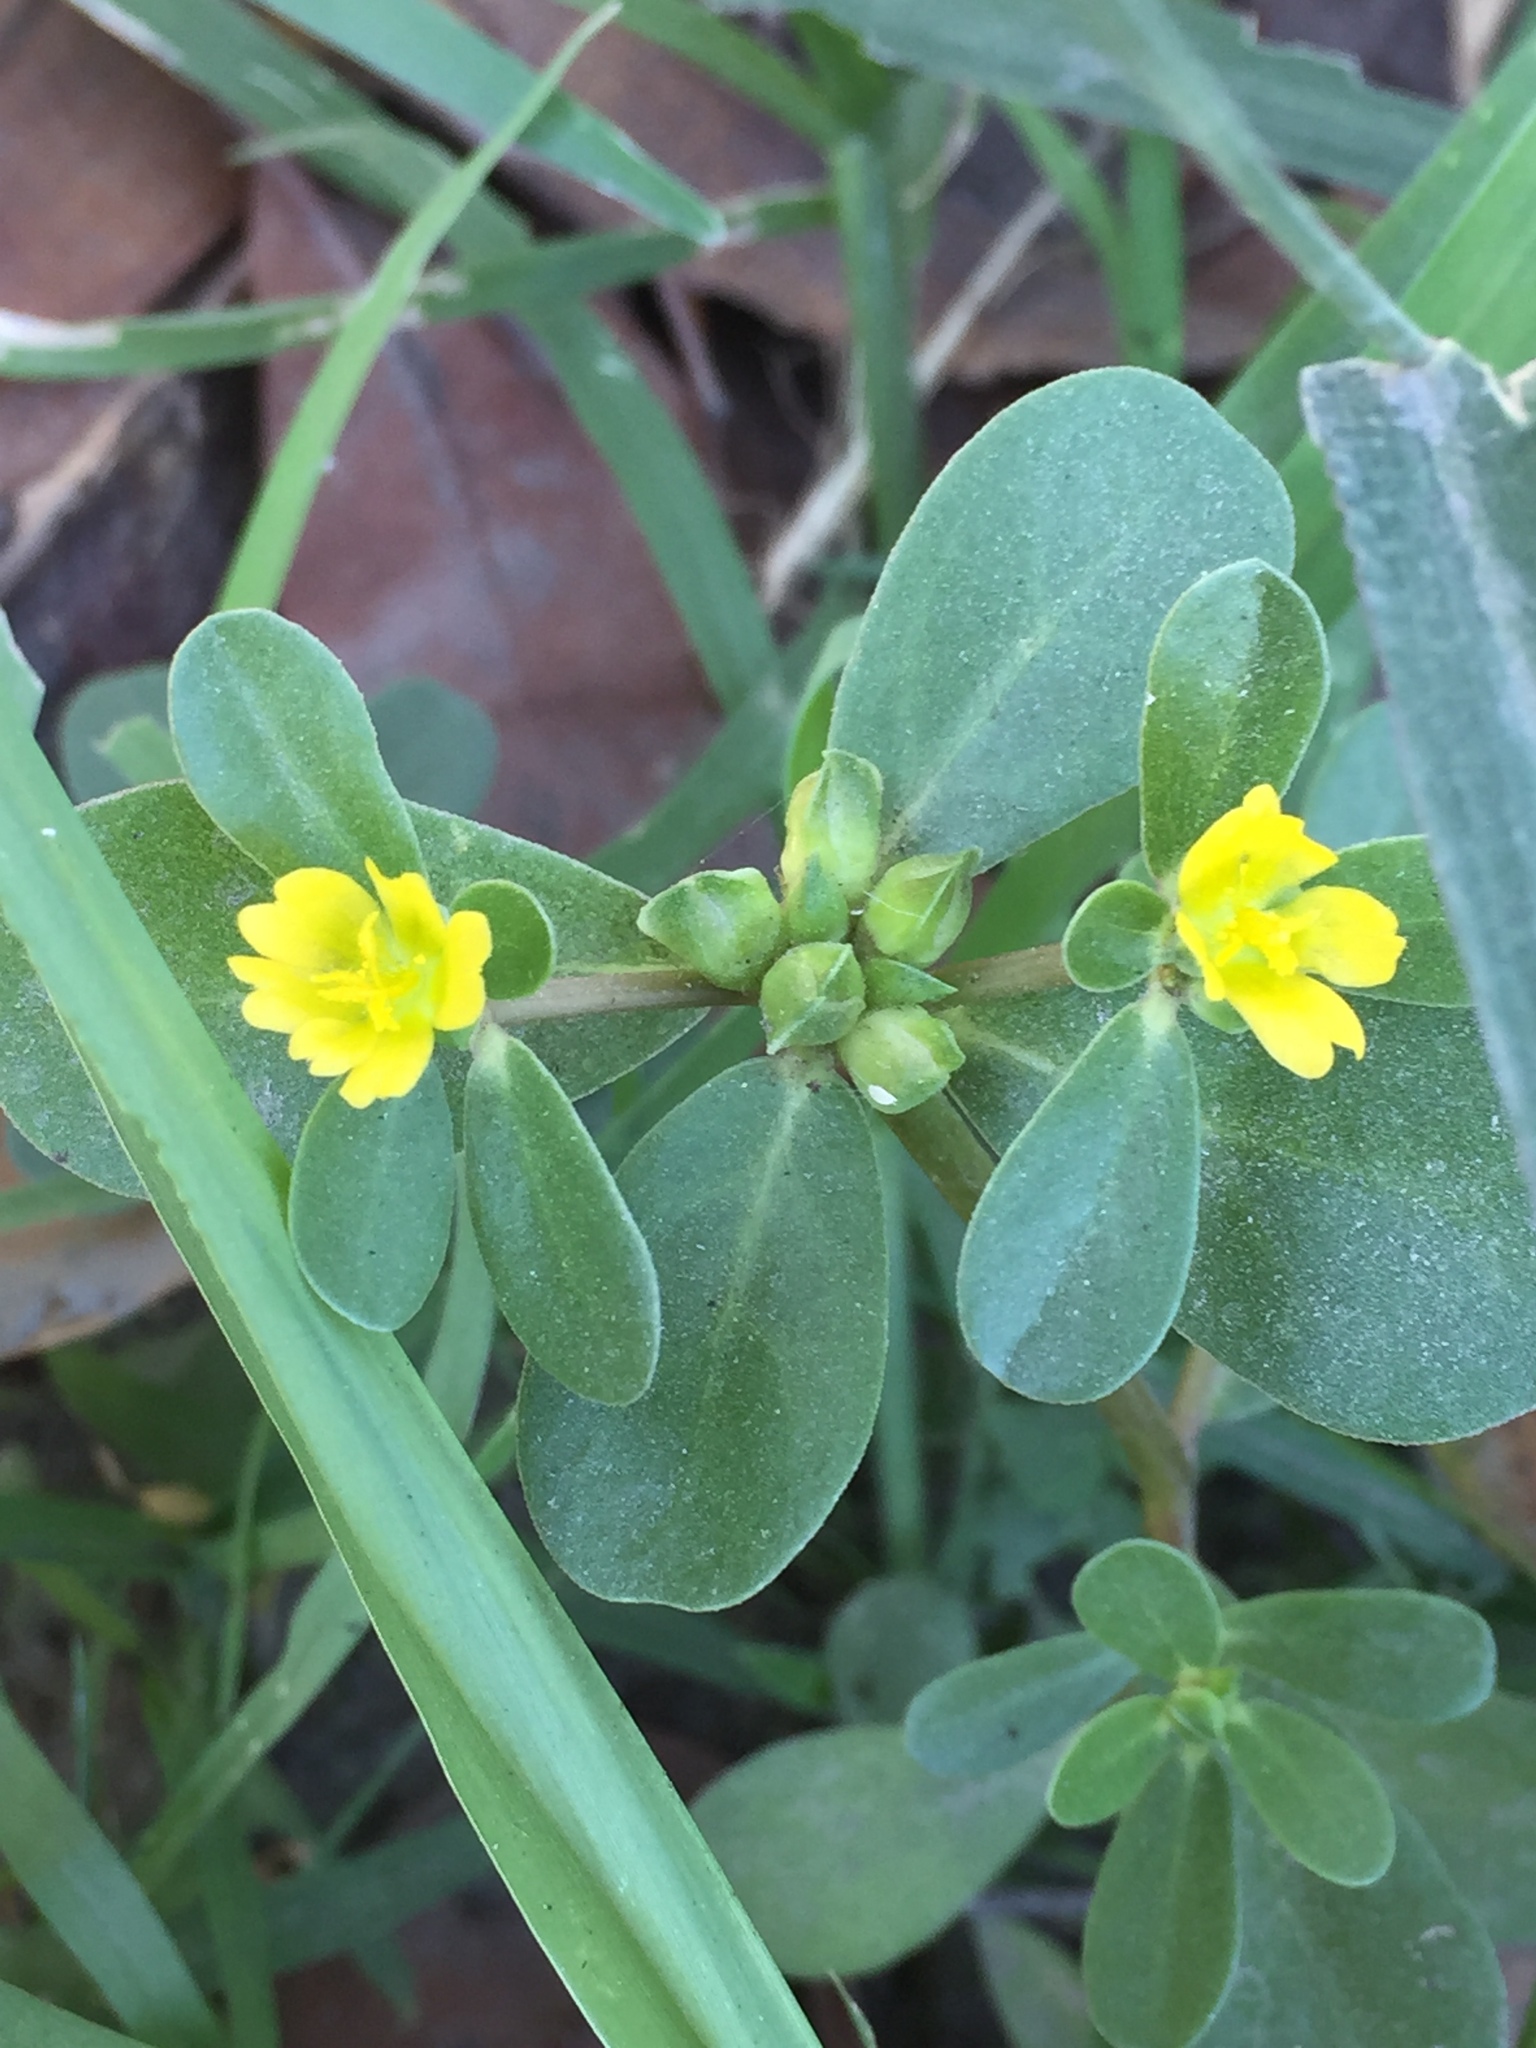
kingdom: Plantae
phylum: Tracheophyta
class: Magnoliopsida
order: Caryophyllales
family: Portulacaceae
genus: Portulaca
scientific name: Portulaca oleracea
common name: Common purslane
